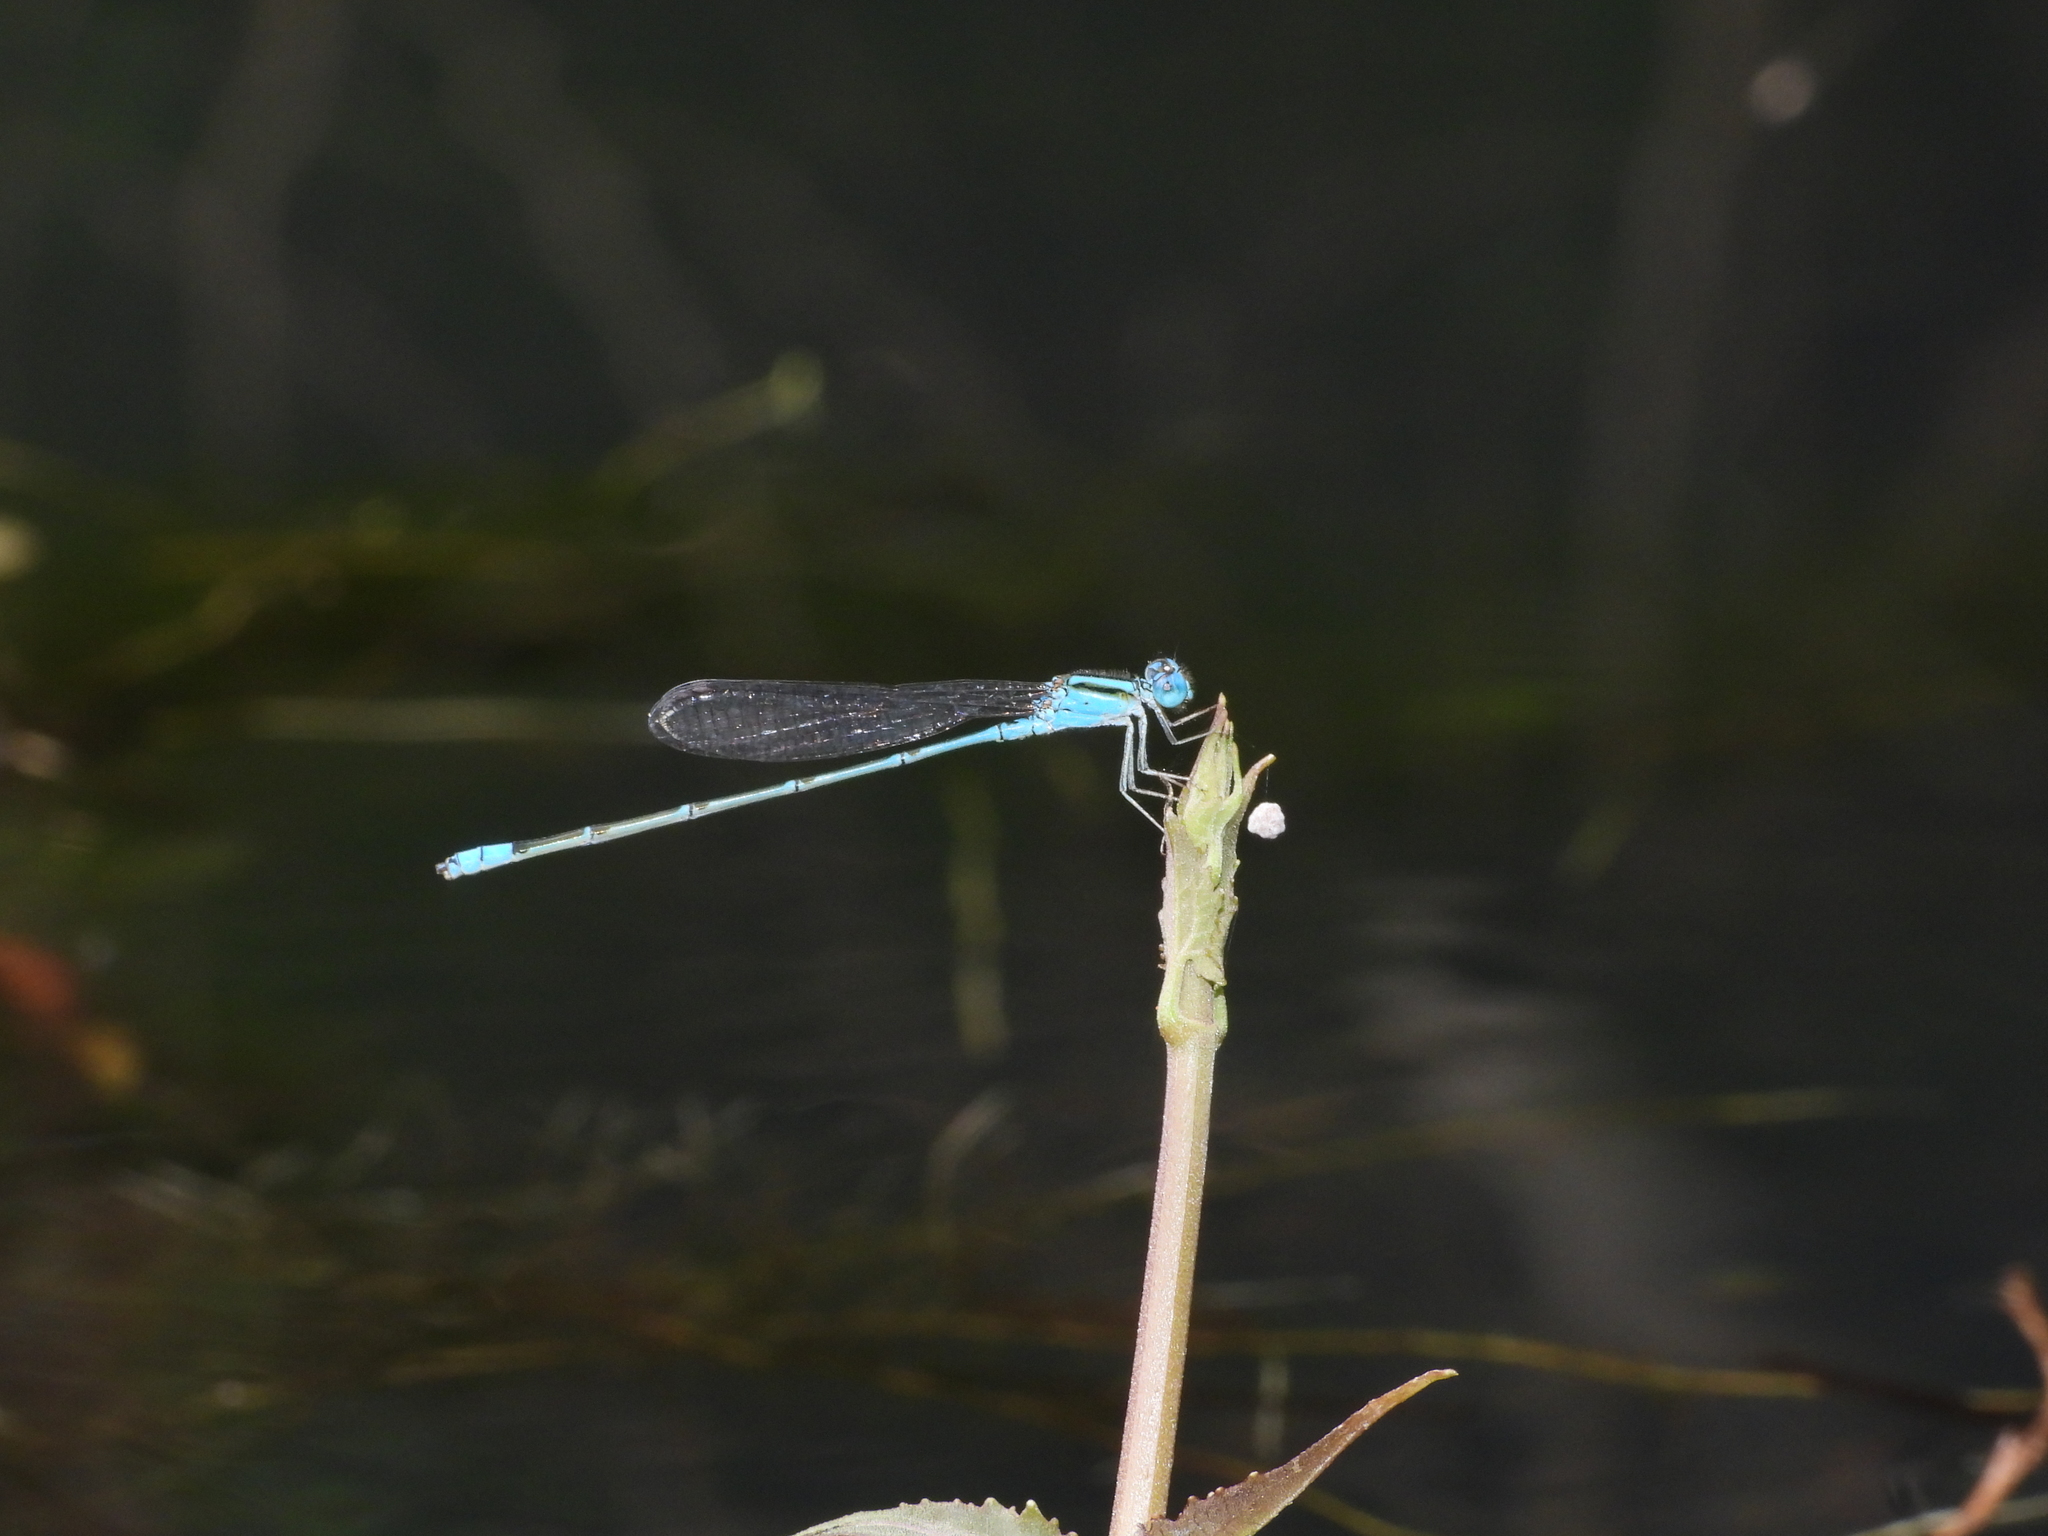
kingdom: Animalia
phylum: Arthropoda
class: Insecta
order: Odonata
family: Coenagrionidae
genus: Pseudagrion
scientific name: Pseudagrion microcephalum
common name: Blue riverdamsel
